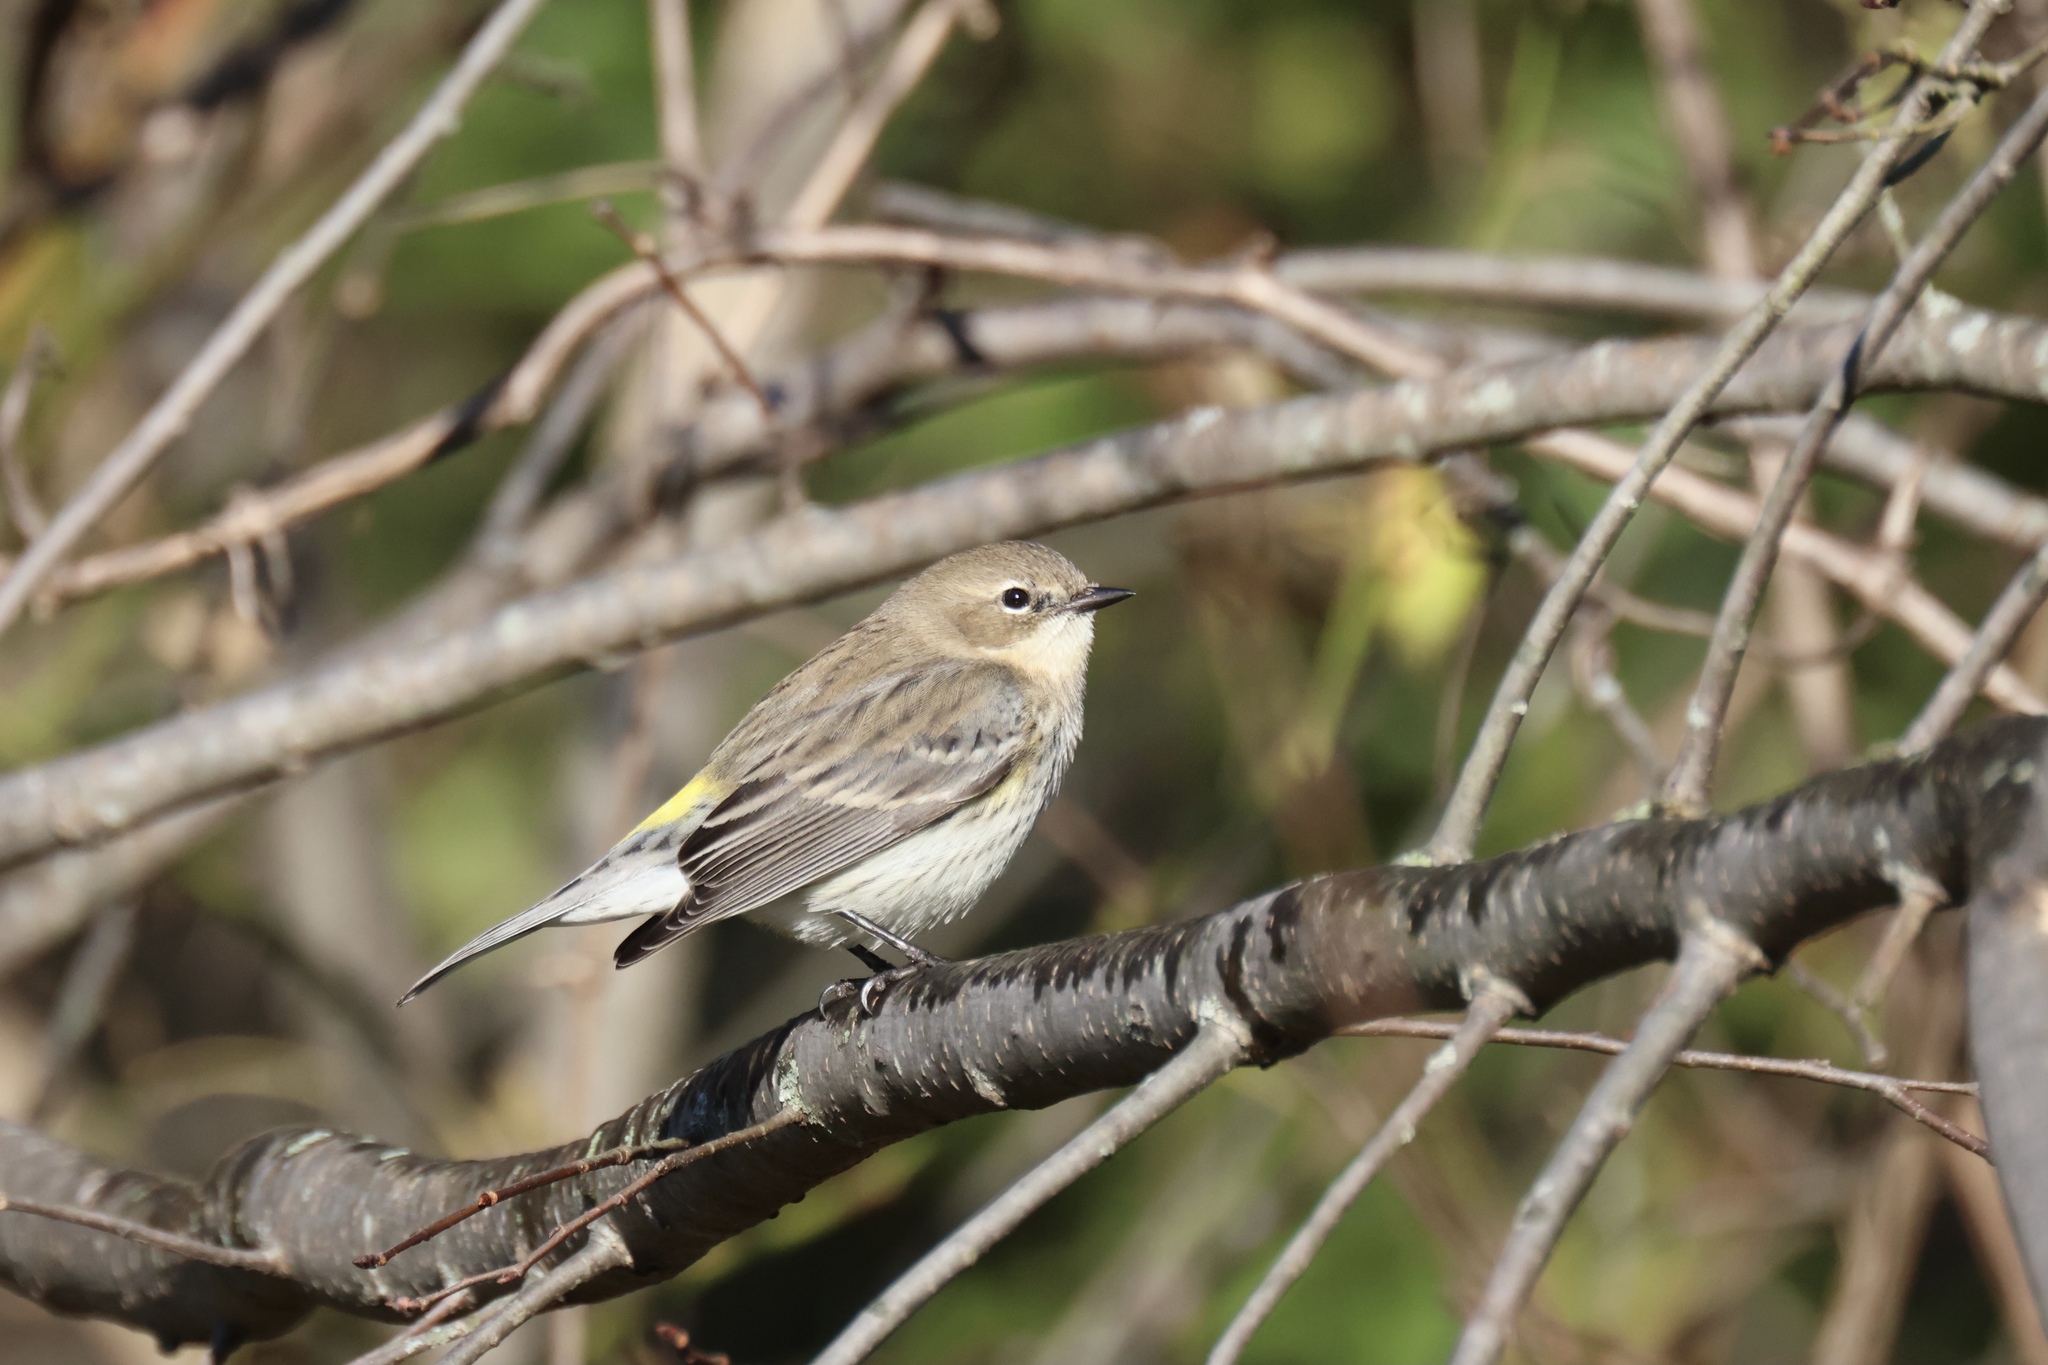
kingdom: Animalia
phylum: Chordata
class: Aves
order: Passeriformes
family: Parulidae
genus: Setophaga
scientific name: Setophaga coronata
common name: Myrtle warbler
